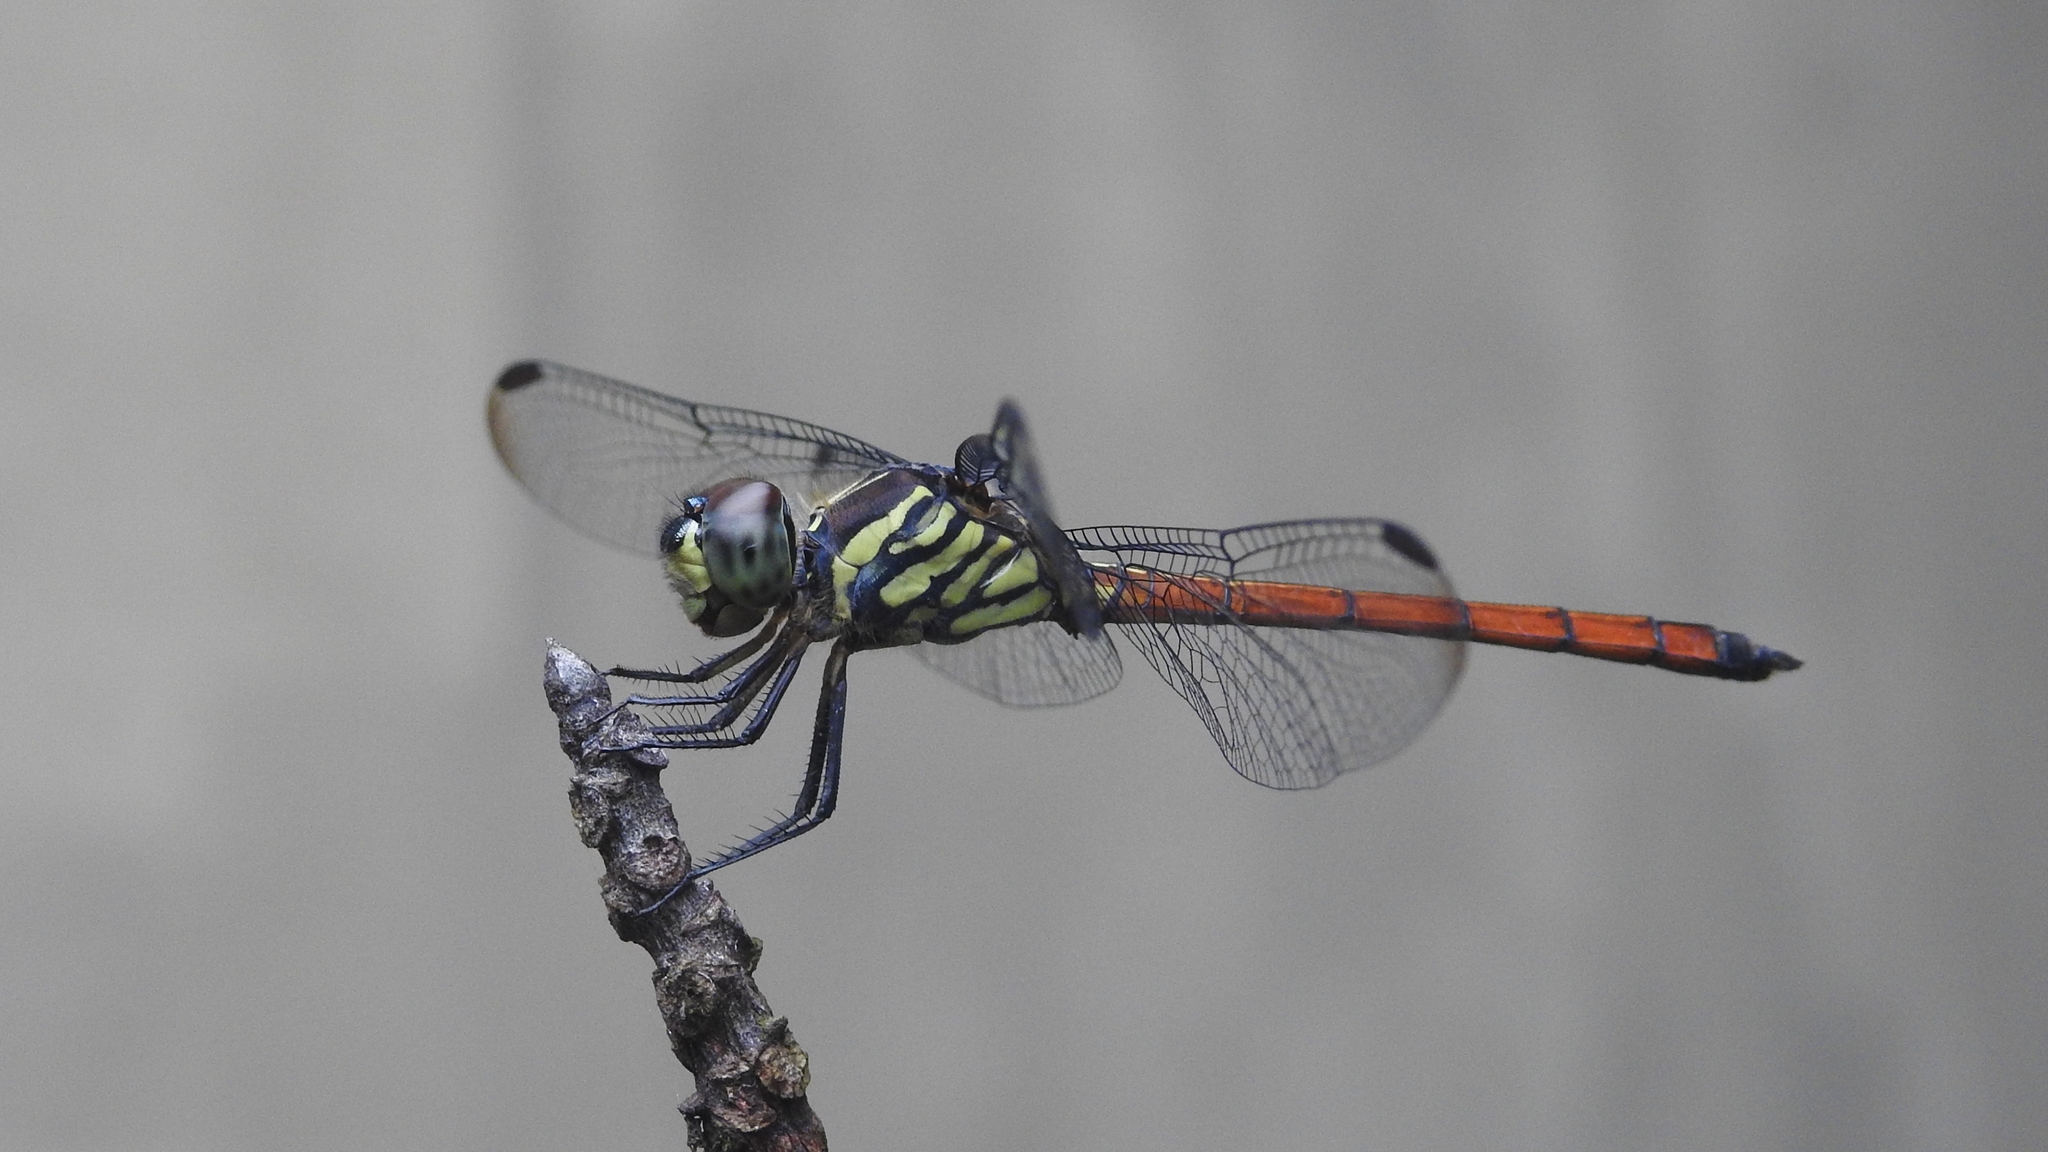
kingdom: Animalia
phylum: Arthropoda
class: Insecta
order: Odonata
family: Libellulidae
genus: Lathrecista
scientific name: Lathrecista asiatica
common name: Scarlet grenadier
